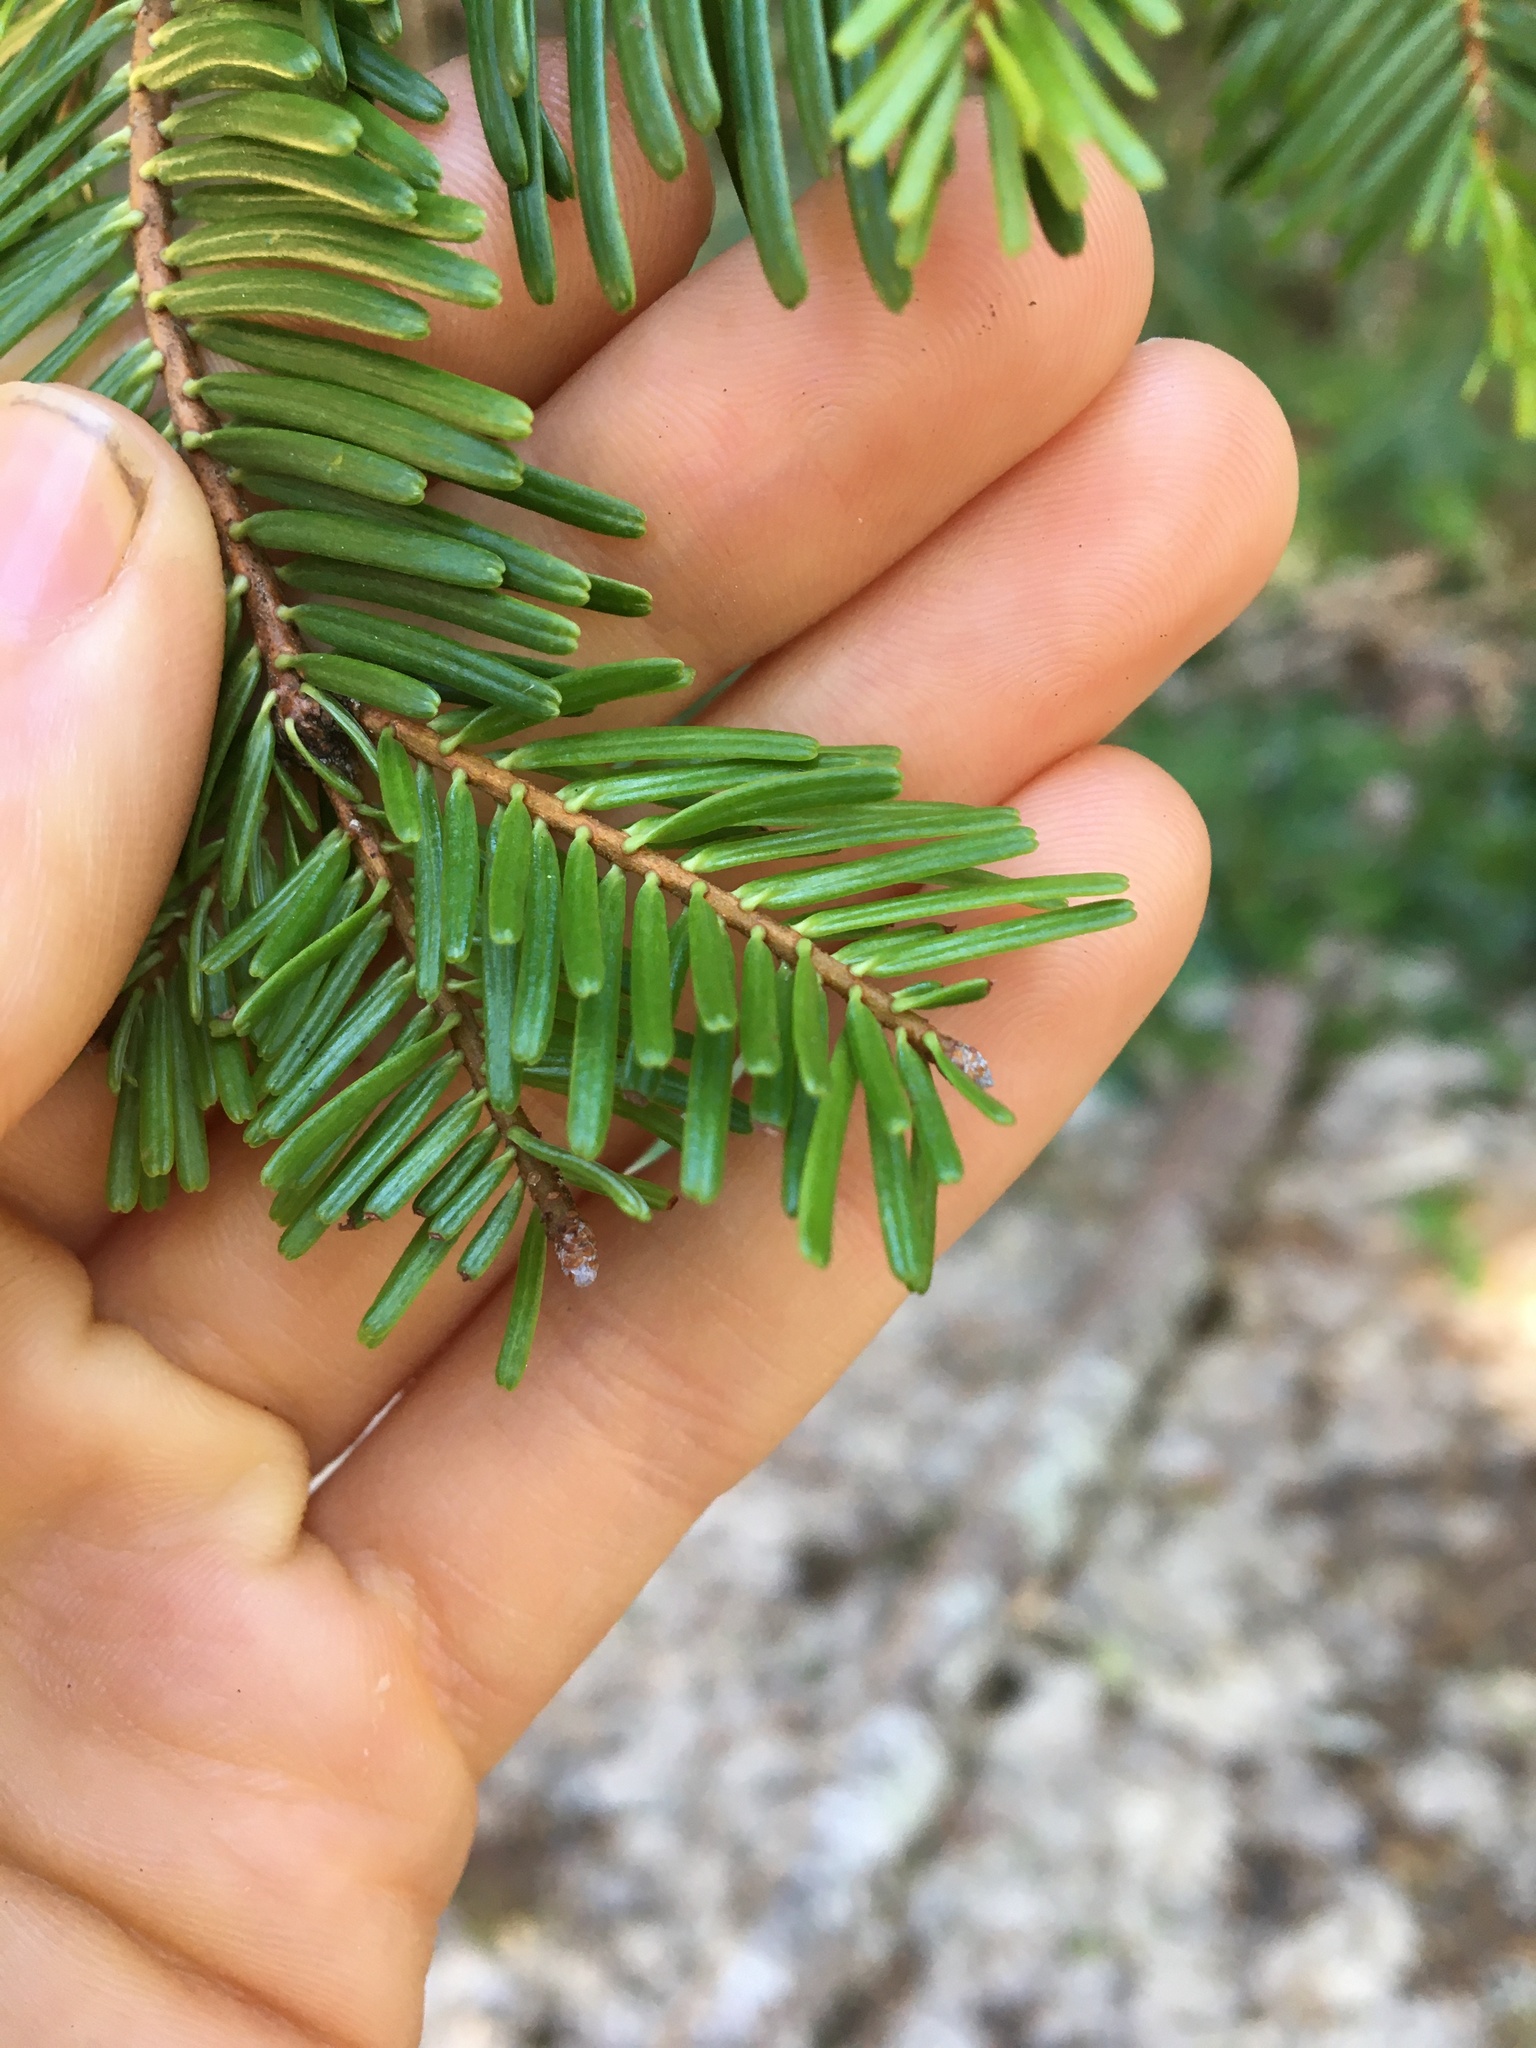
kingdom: Plantae
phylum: Tracheophyta
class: Pinopsida
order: Pinales
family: Pinaceae
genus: Abies
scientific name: Abies grandis
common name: Giant fir
